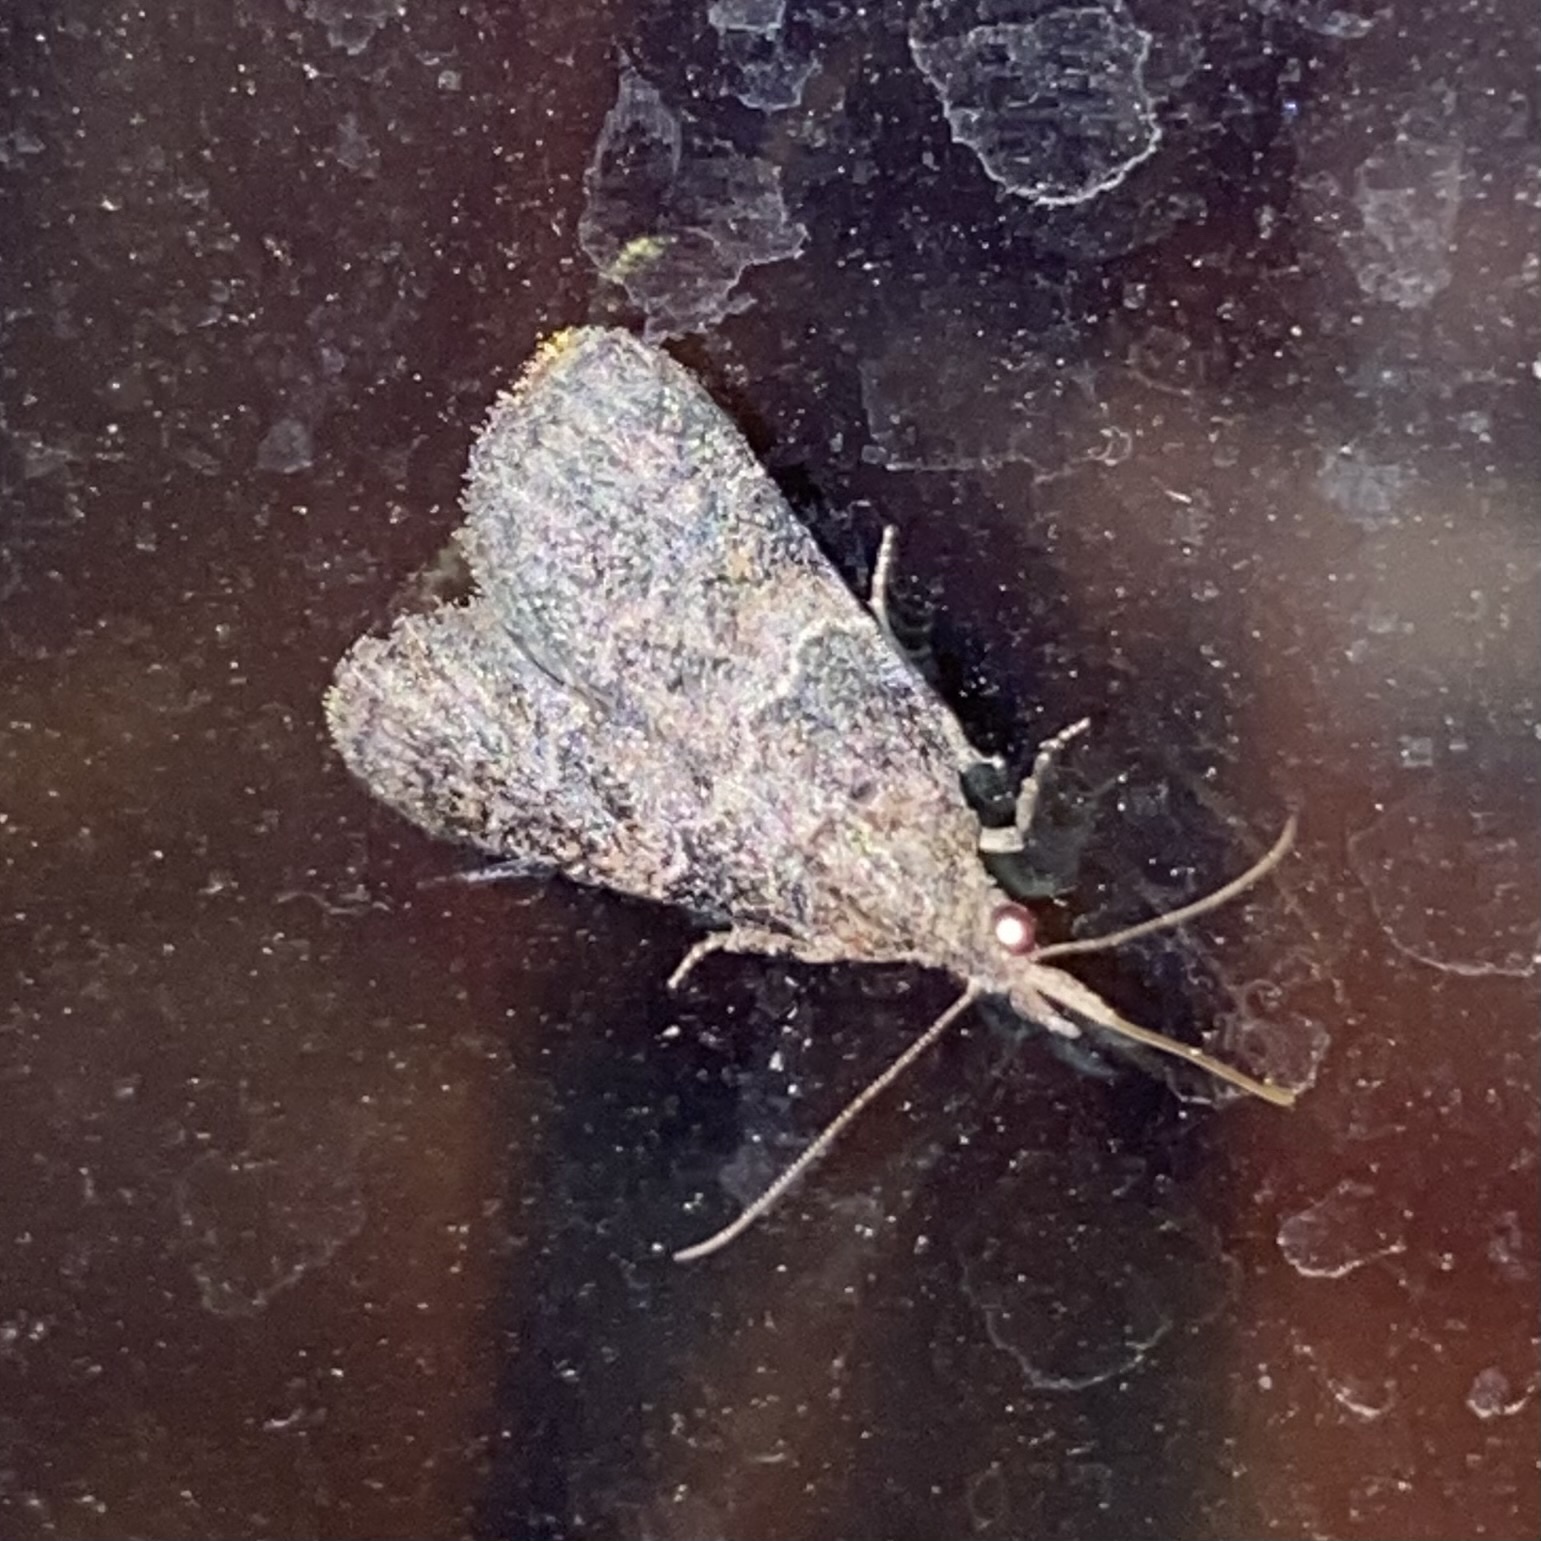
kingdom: Animalia
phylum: Arthropoda
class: Insecta
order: Lepidoptera
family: Pyralidae
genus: Satole
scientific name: Satole ligniperdalis
